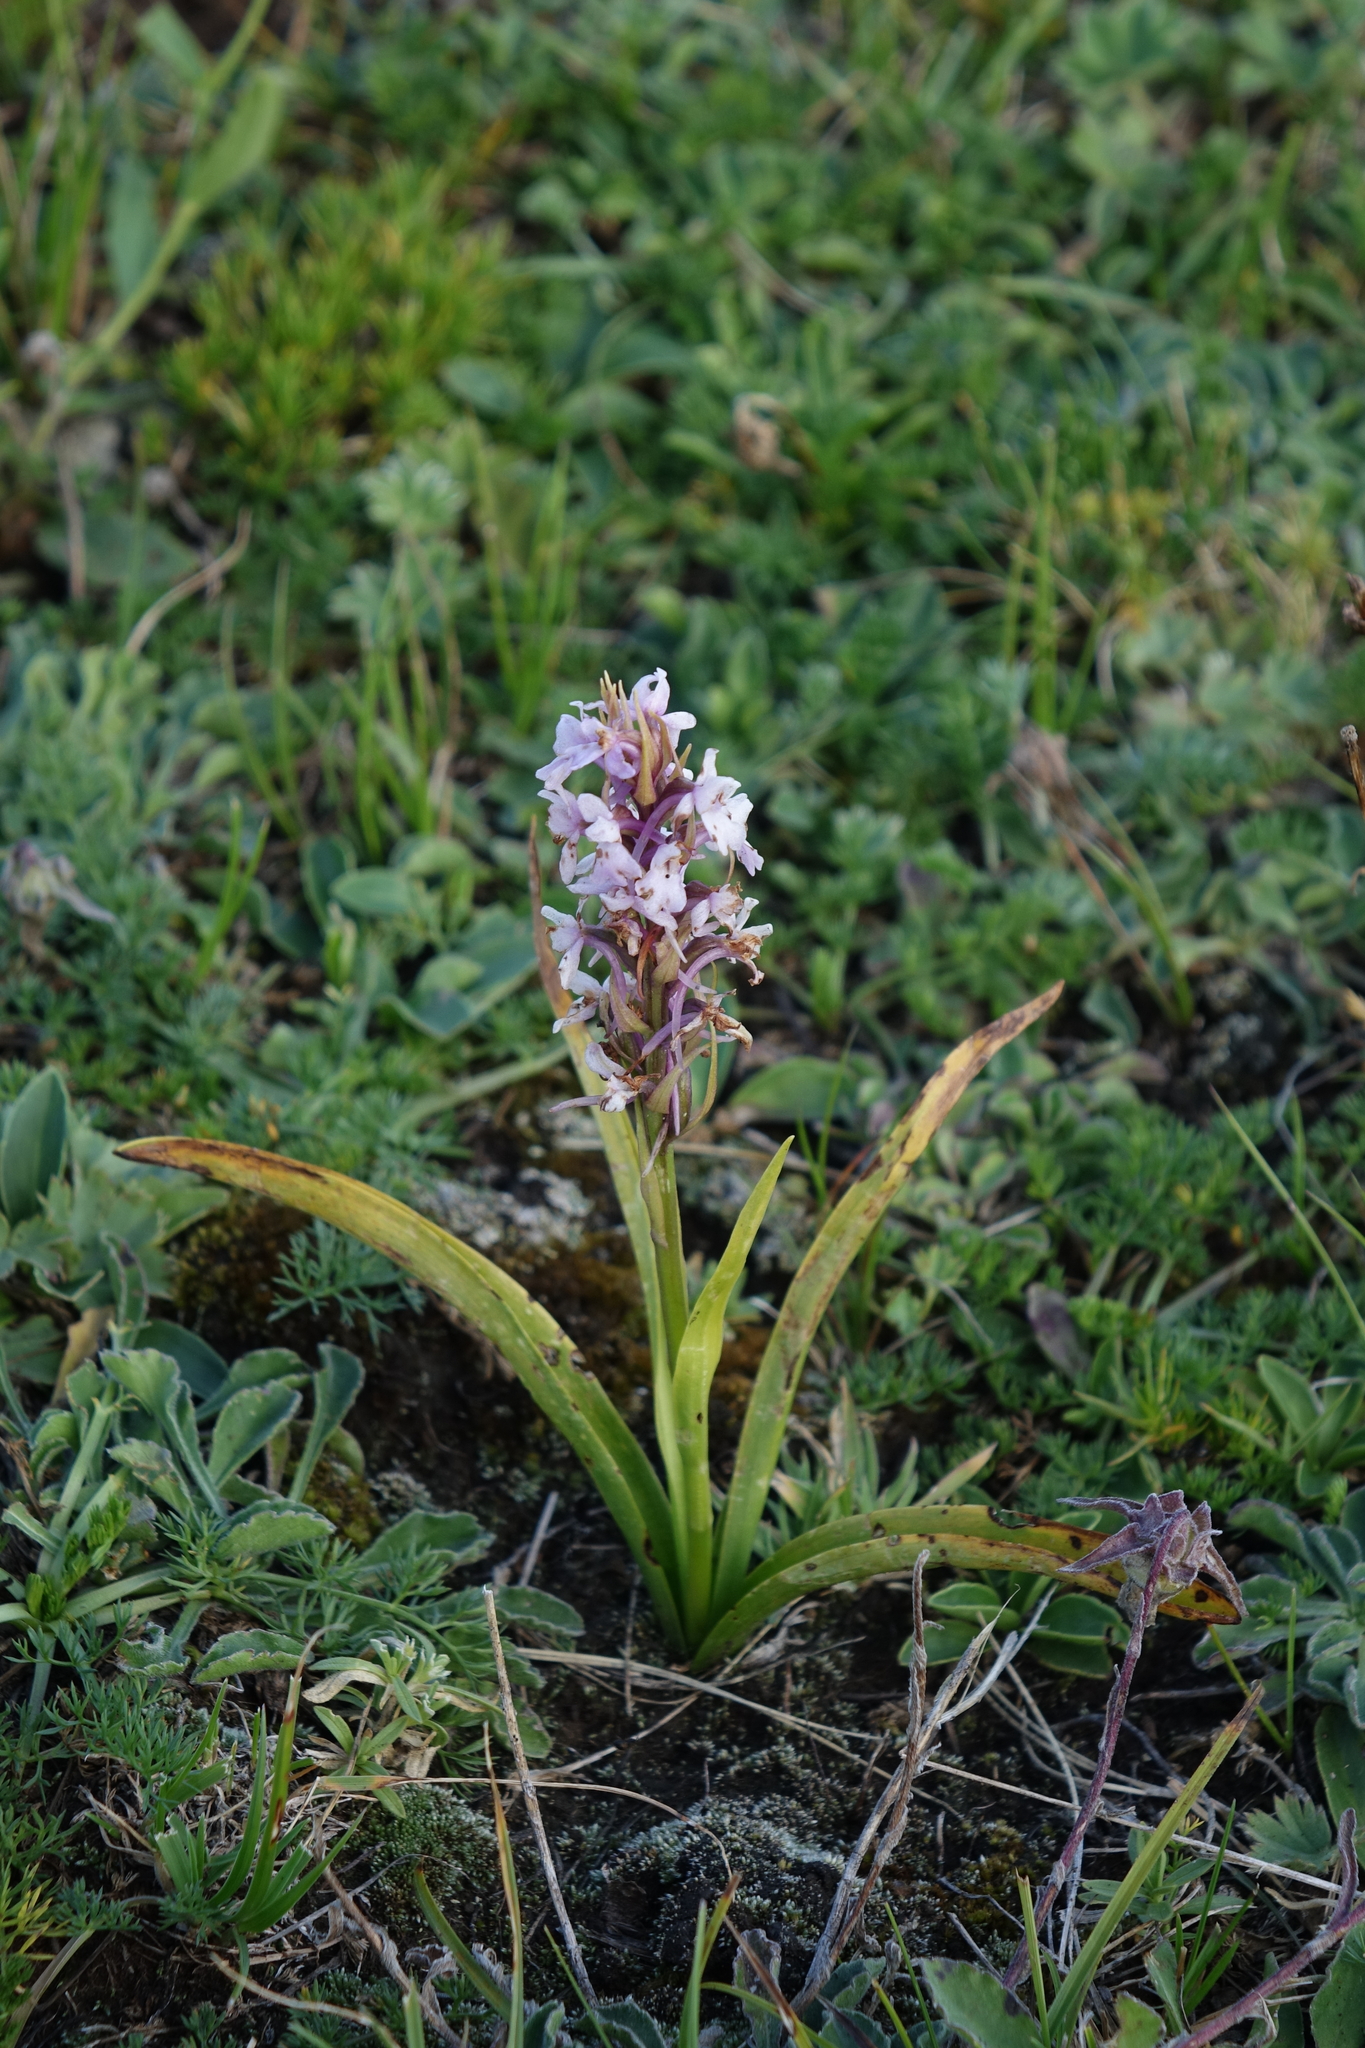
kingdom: Plantae
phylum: Tracheophyta
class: Liliopsida
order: Asparagales
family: Orchidaceae
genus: Gymnadenia
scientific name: Gymnadenia conopsea
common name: Fragrant orchid
